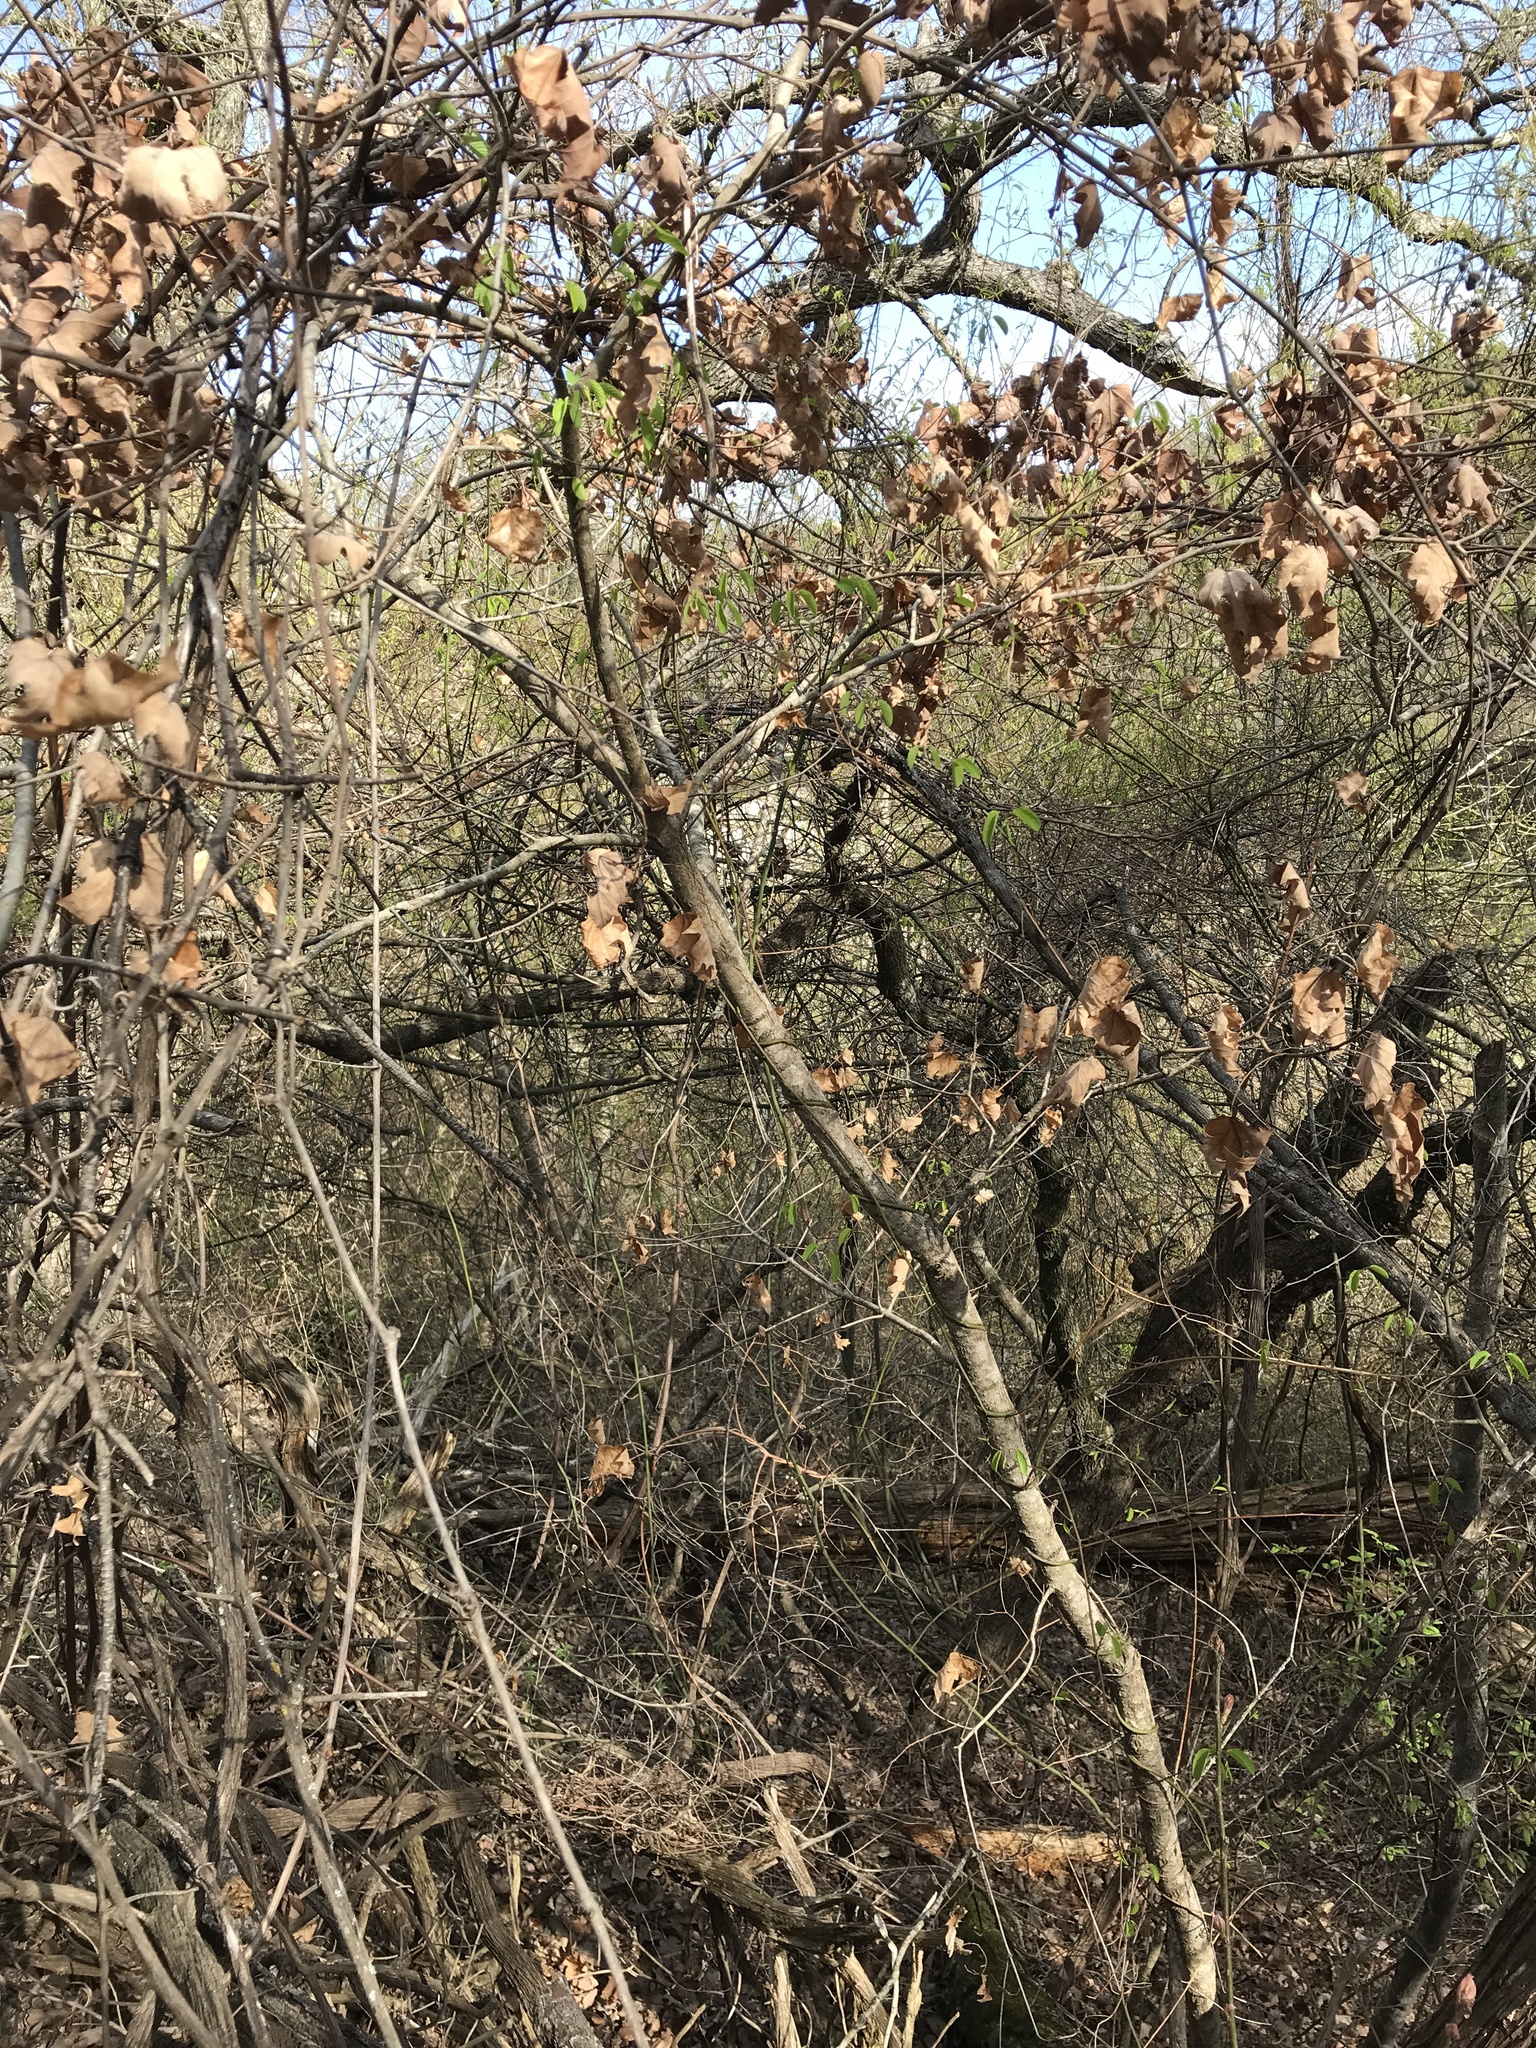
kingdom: Plantae
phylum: Tracheophyta
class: Magnoliopsida
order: Sapindales
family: Sapindaceae
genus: Acer
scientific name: Acer grandidentatum
